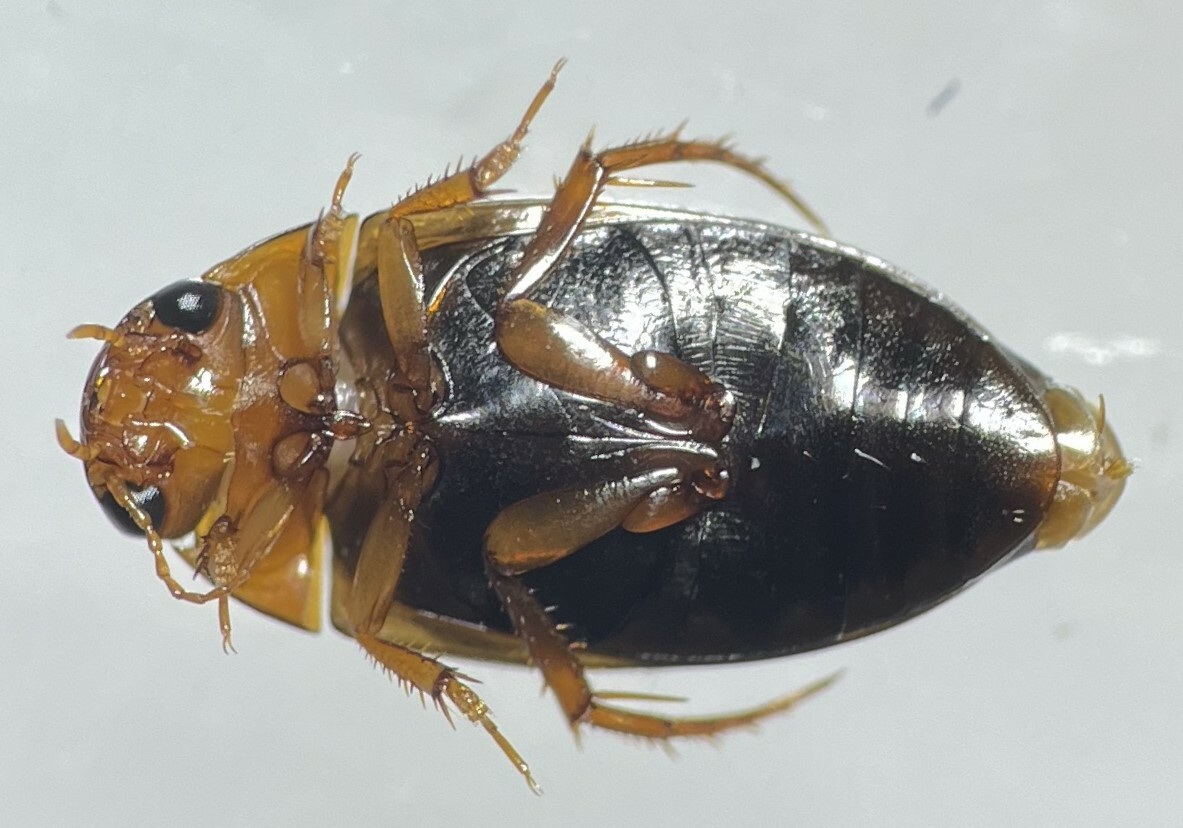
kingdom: Animalia
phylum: Arthropoda
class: Insecta
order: Coleoptera
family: Dytiscidae
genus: Copelatus
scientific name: Copelatus glyphicus
